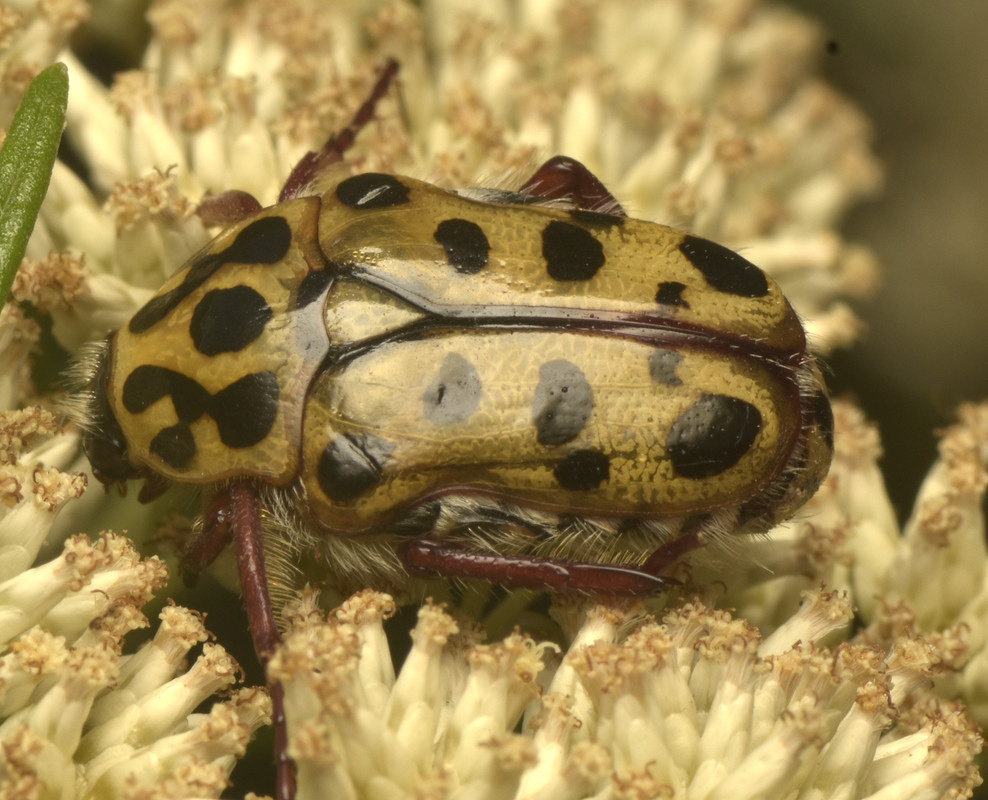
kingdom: Animalia
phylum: Arthropoda
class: Insecta
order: Coleoptera
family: Scarabaeidae
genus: Neorrhina
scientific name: Neorrhina punctatum
